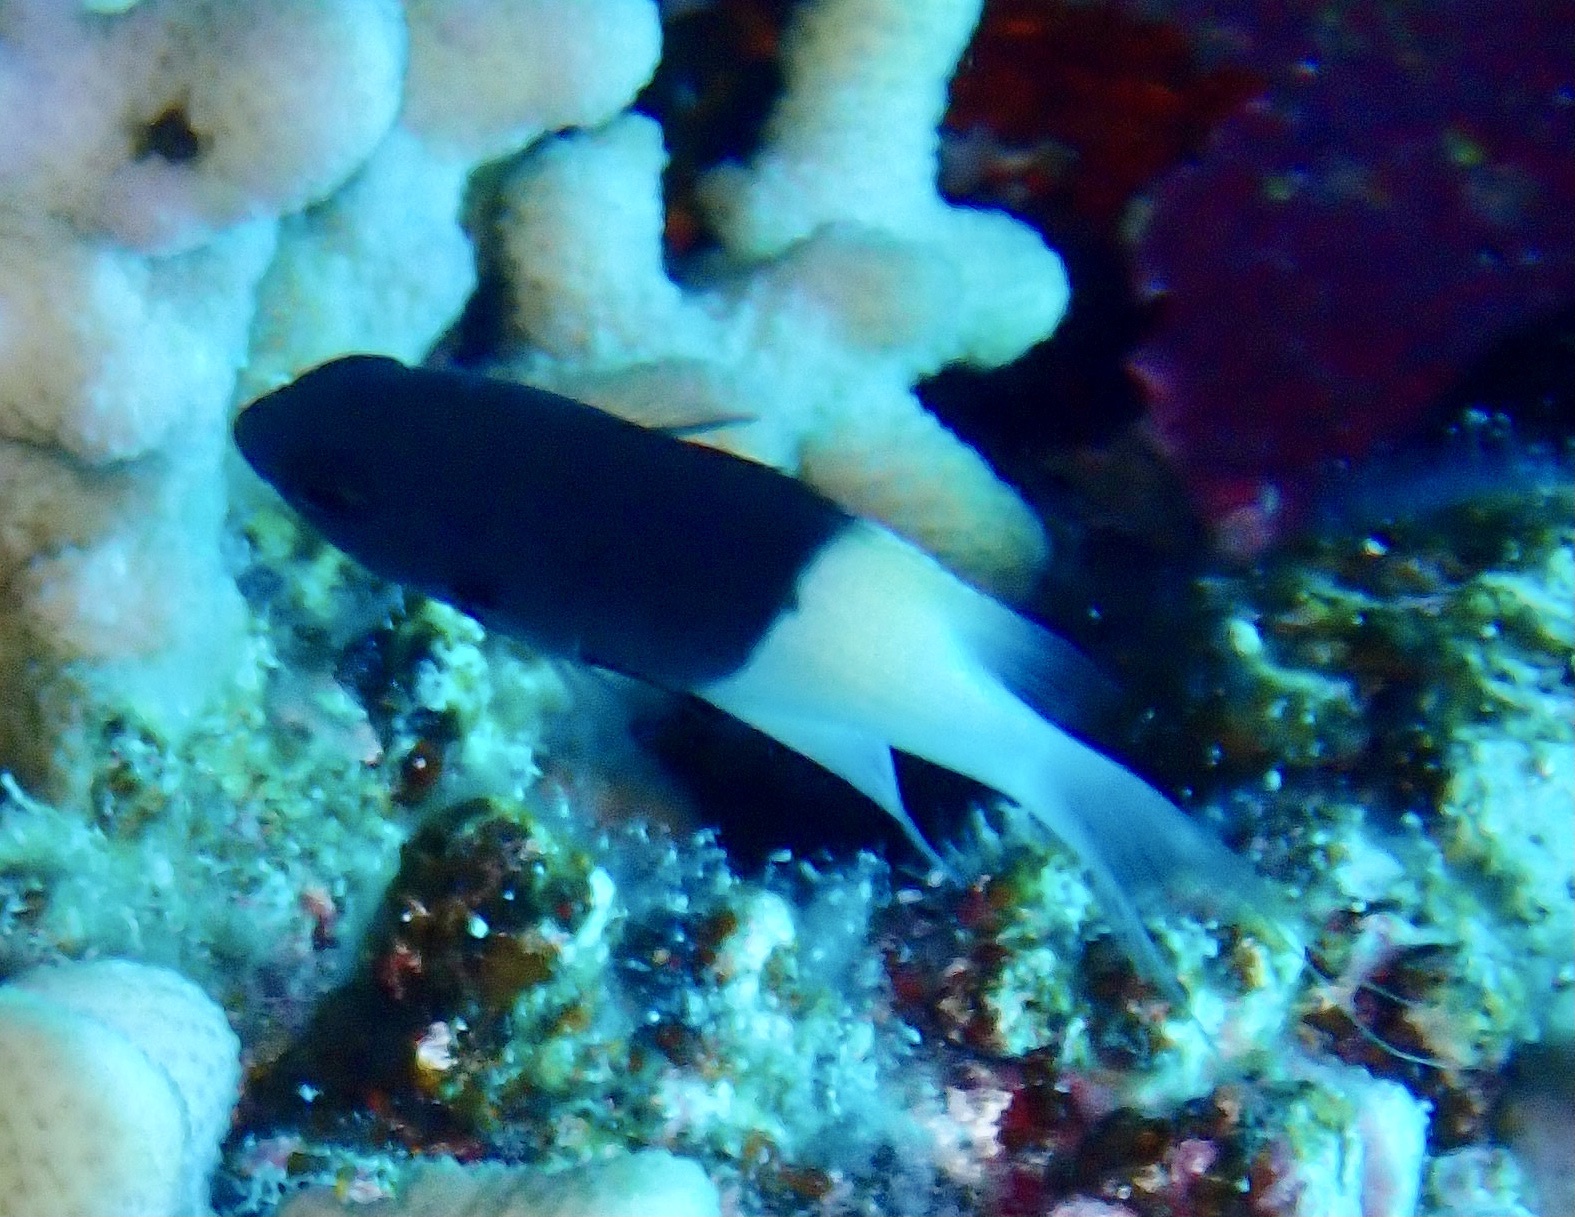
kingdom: Animalia
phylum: Chordata
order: Perciformes
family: Pomacentridae
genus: Chromis
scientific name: Chromis dimidiata
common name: Half-and-half chromis
